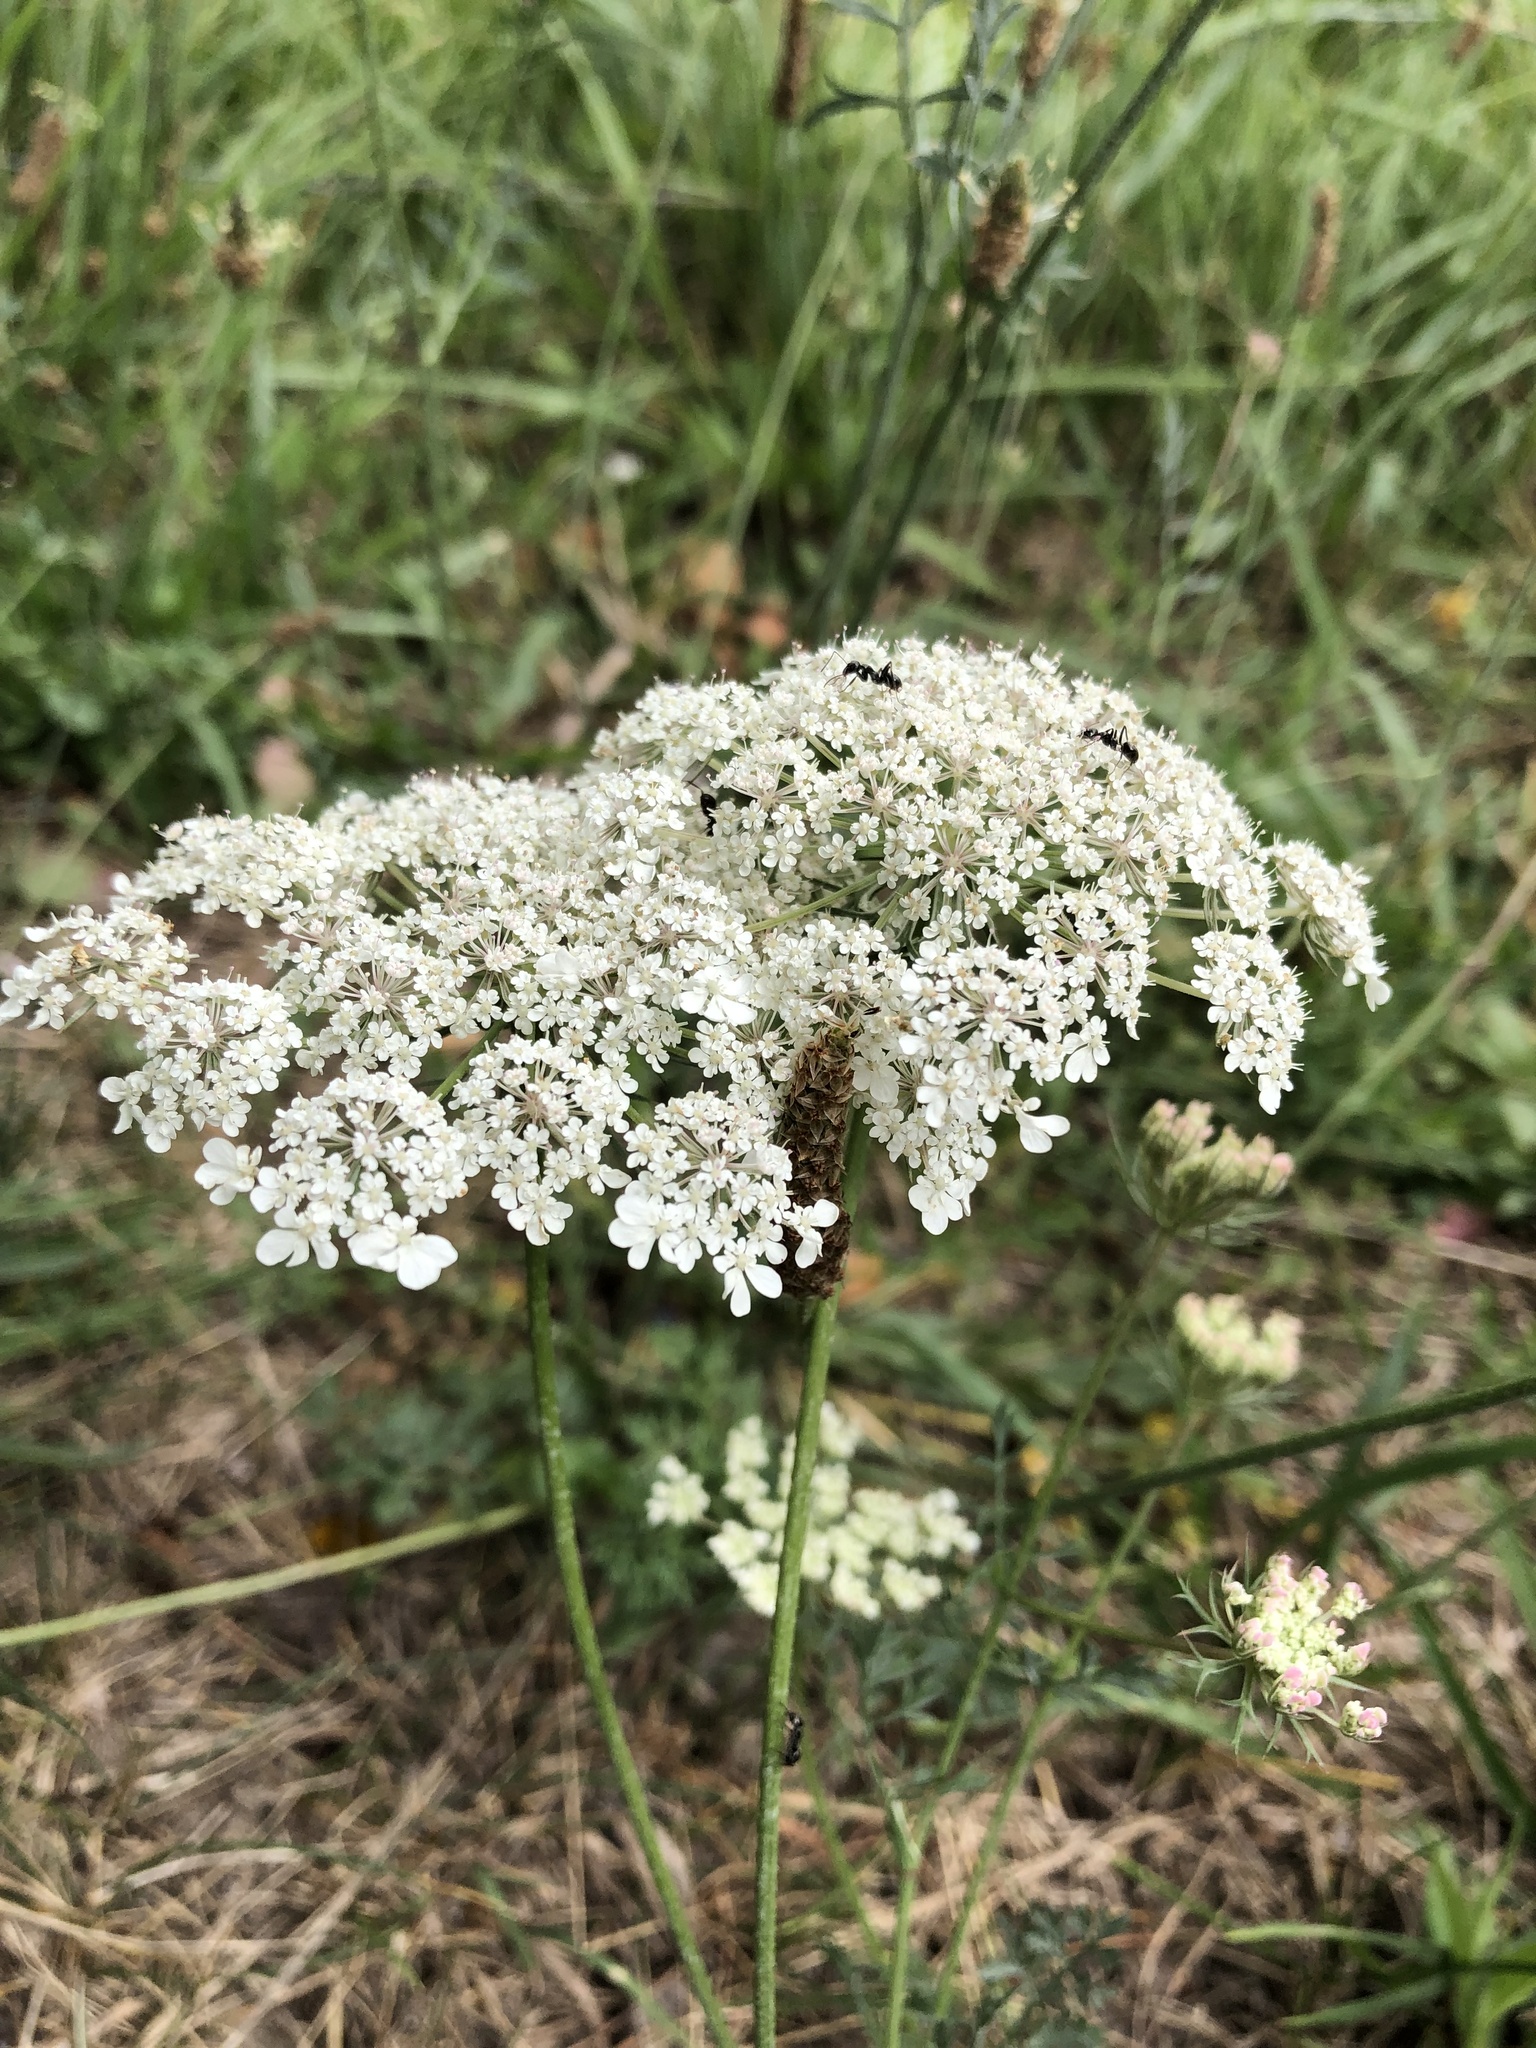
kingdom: Plantae
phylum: Tracheophyta
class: Magnoliopsida
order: Apiales
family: Apiaceae
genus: Daucus
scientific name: Daucus carota
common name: Wild carrot
